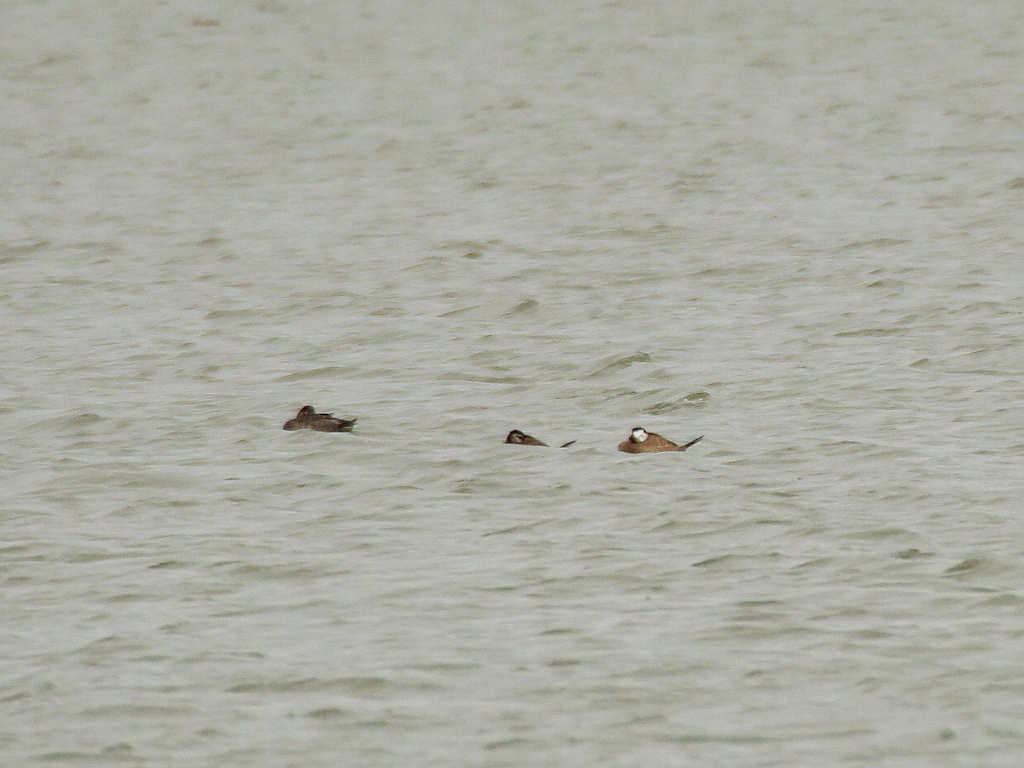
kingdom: Animalia
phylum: Chordata
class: Aves
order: Anseriformes
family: Anatidae
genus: Oxyura
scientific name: Oxyura leucocephala
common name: White-headed duck
